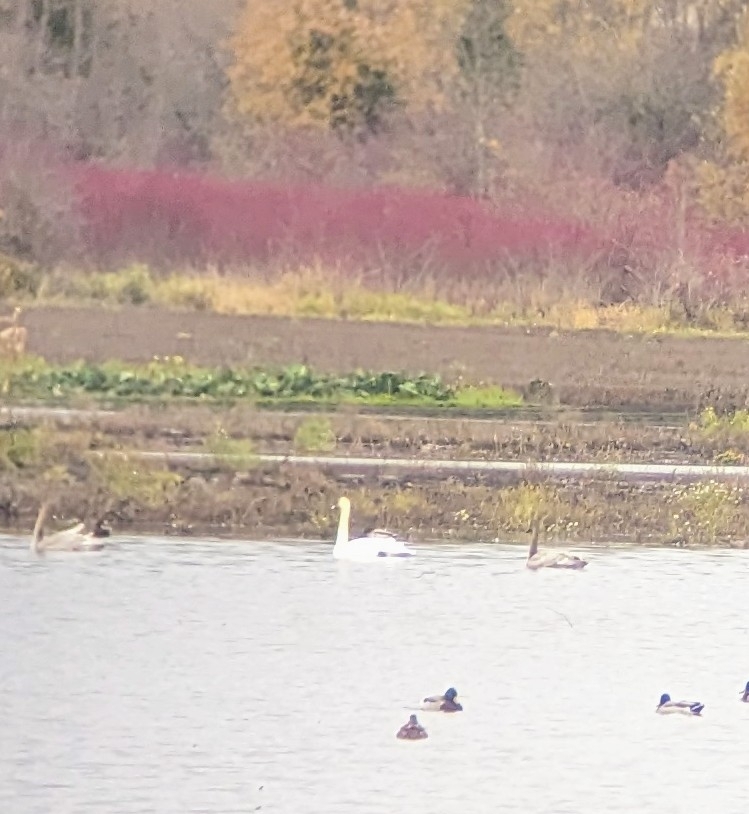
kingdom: Animalia
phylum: Chordata
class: Aves
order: Anseriformes
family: Anatidae
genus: Cygnus
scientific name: Cygnus columbianus
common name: Tundra swan
